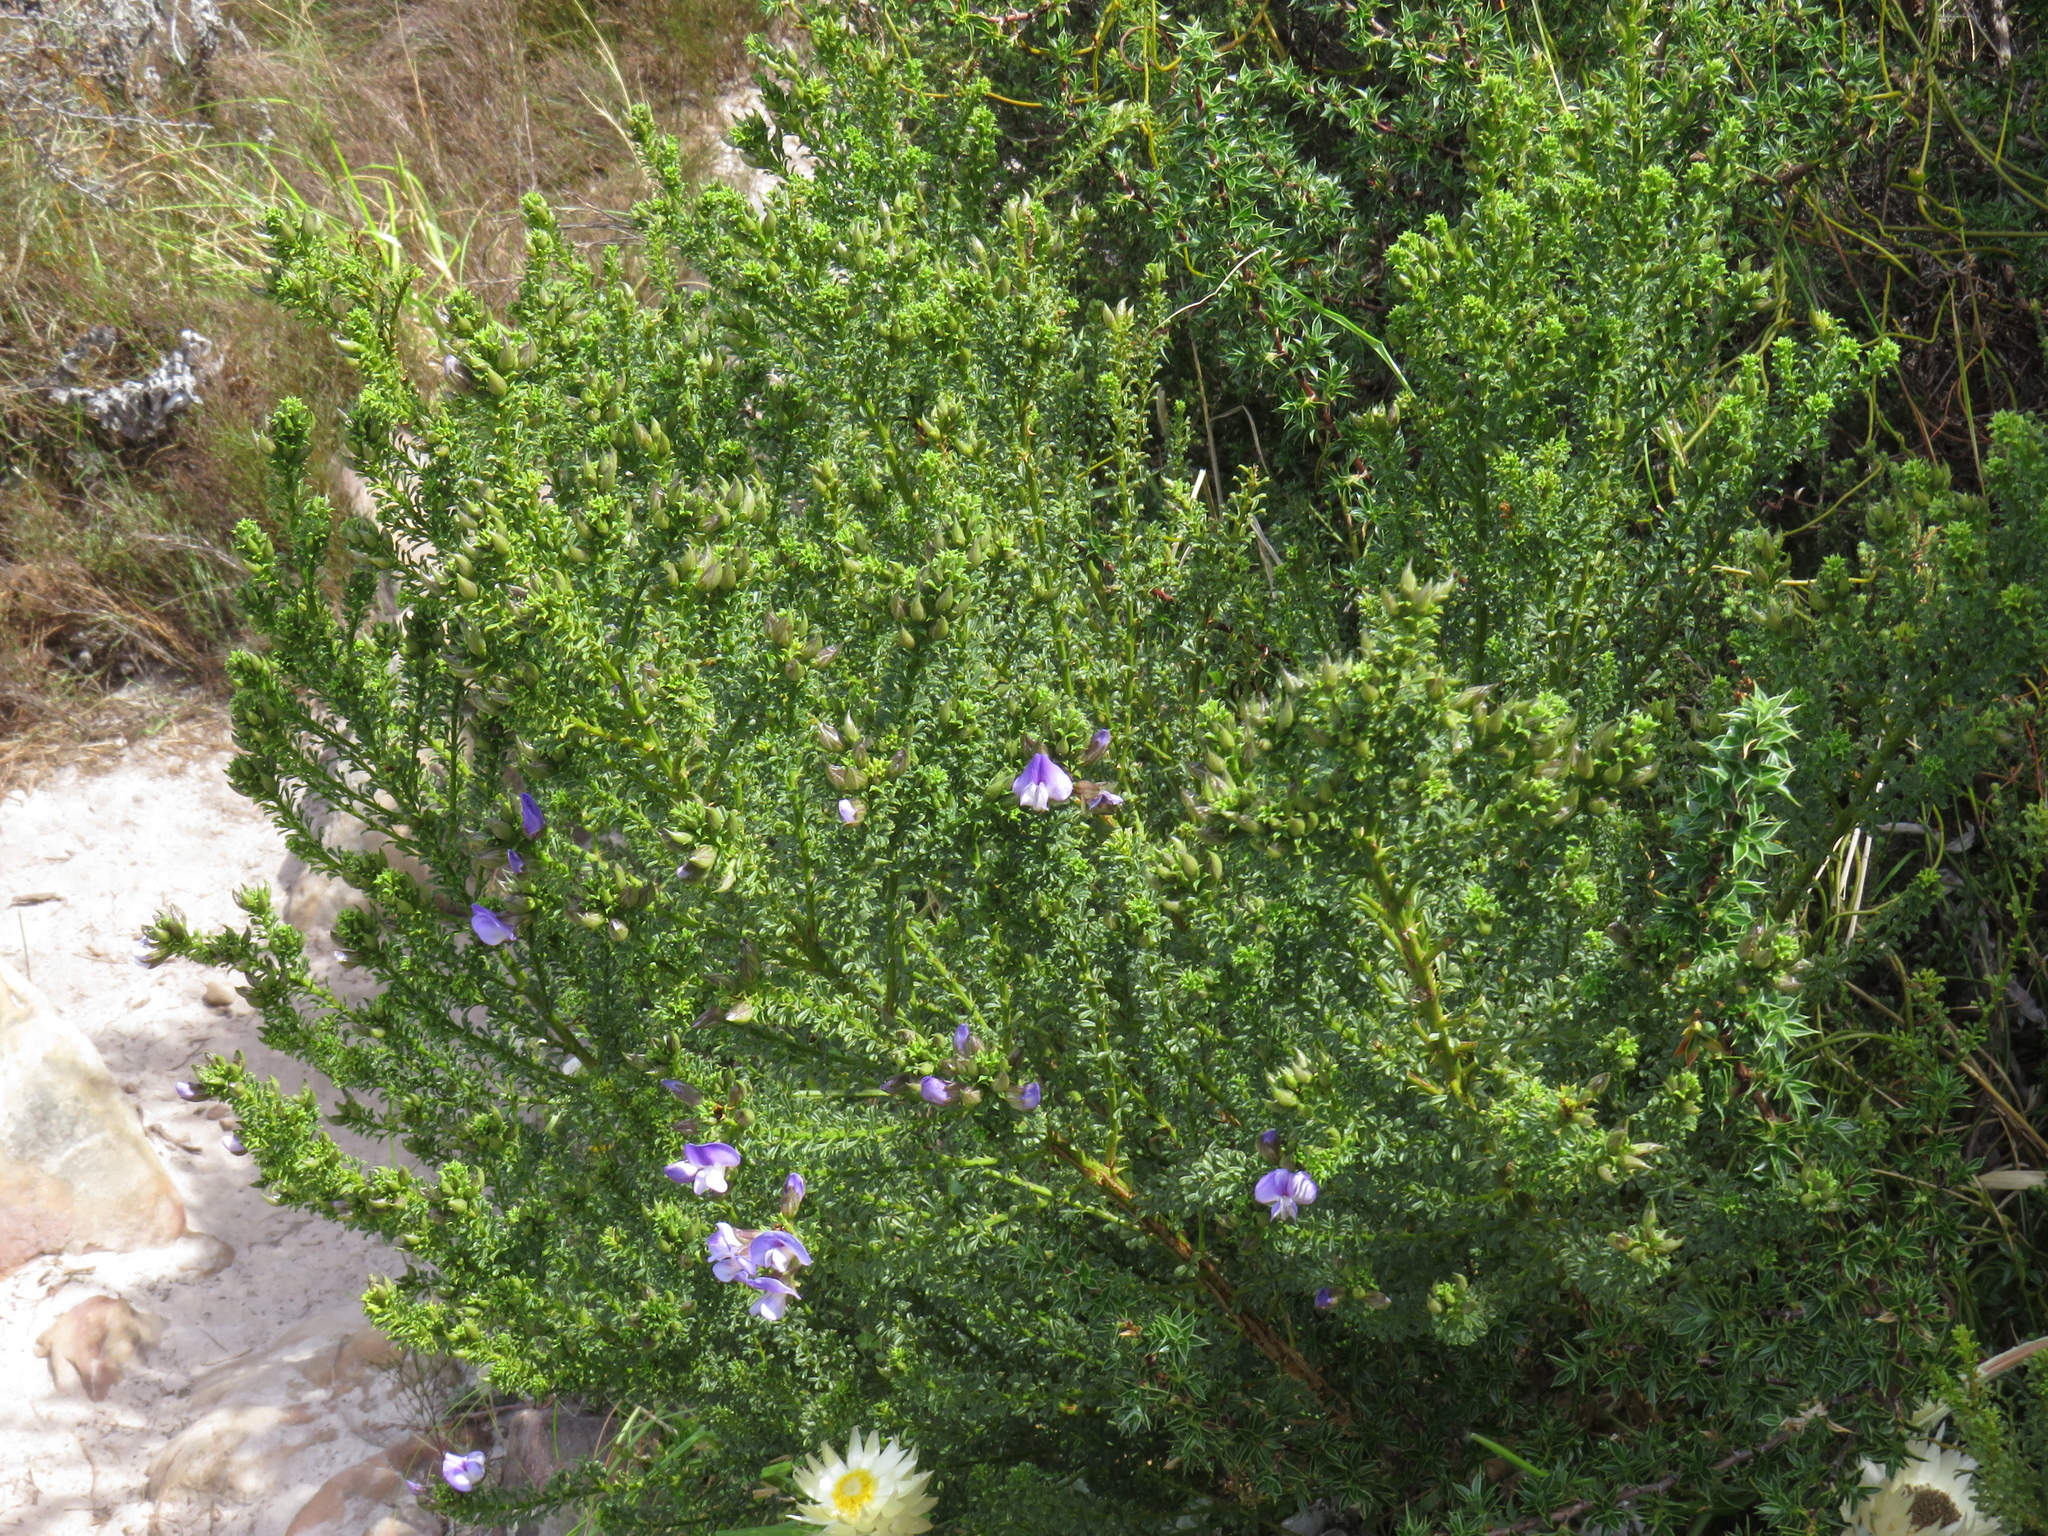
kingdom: Plantae
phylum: Tracheophyta
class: Magnoliopsida
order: Fabales
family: Fabaceae
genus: Psoralea
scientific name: Psoralea aculeata
